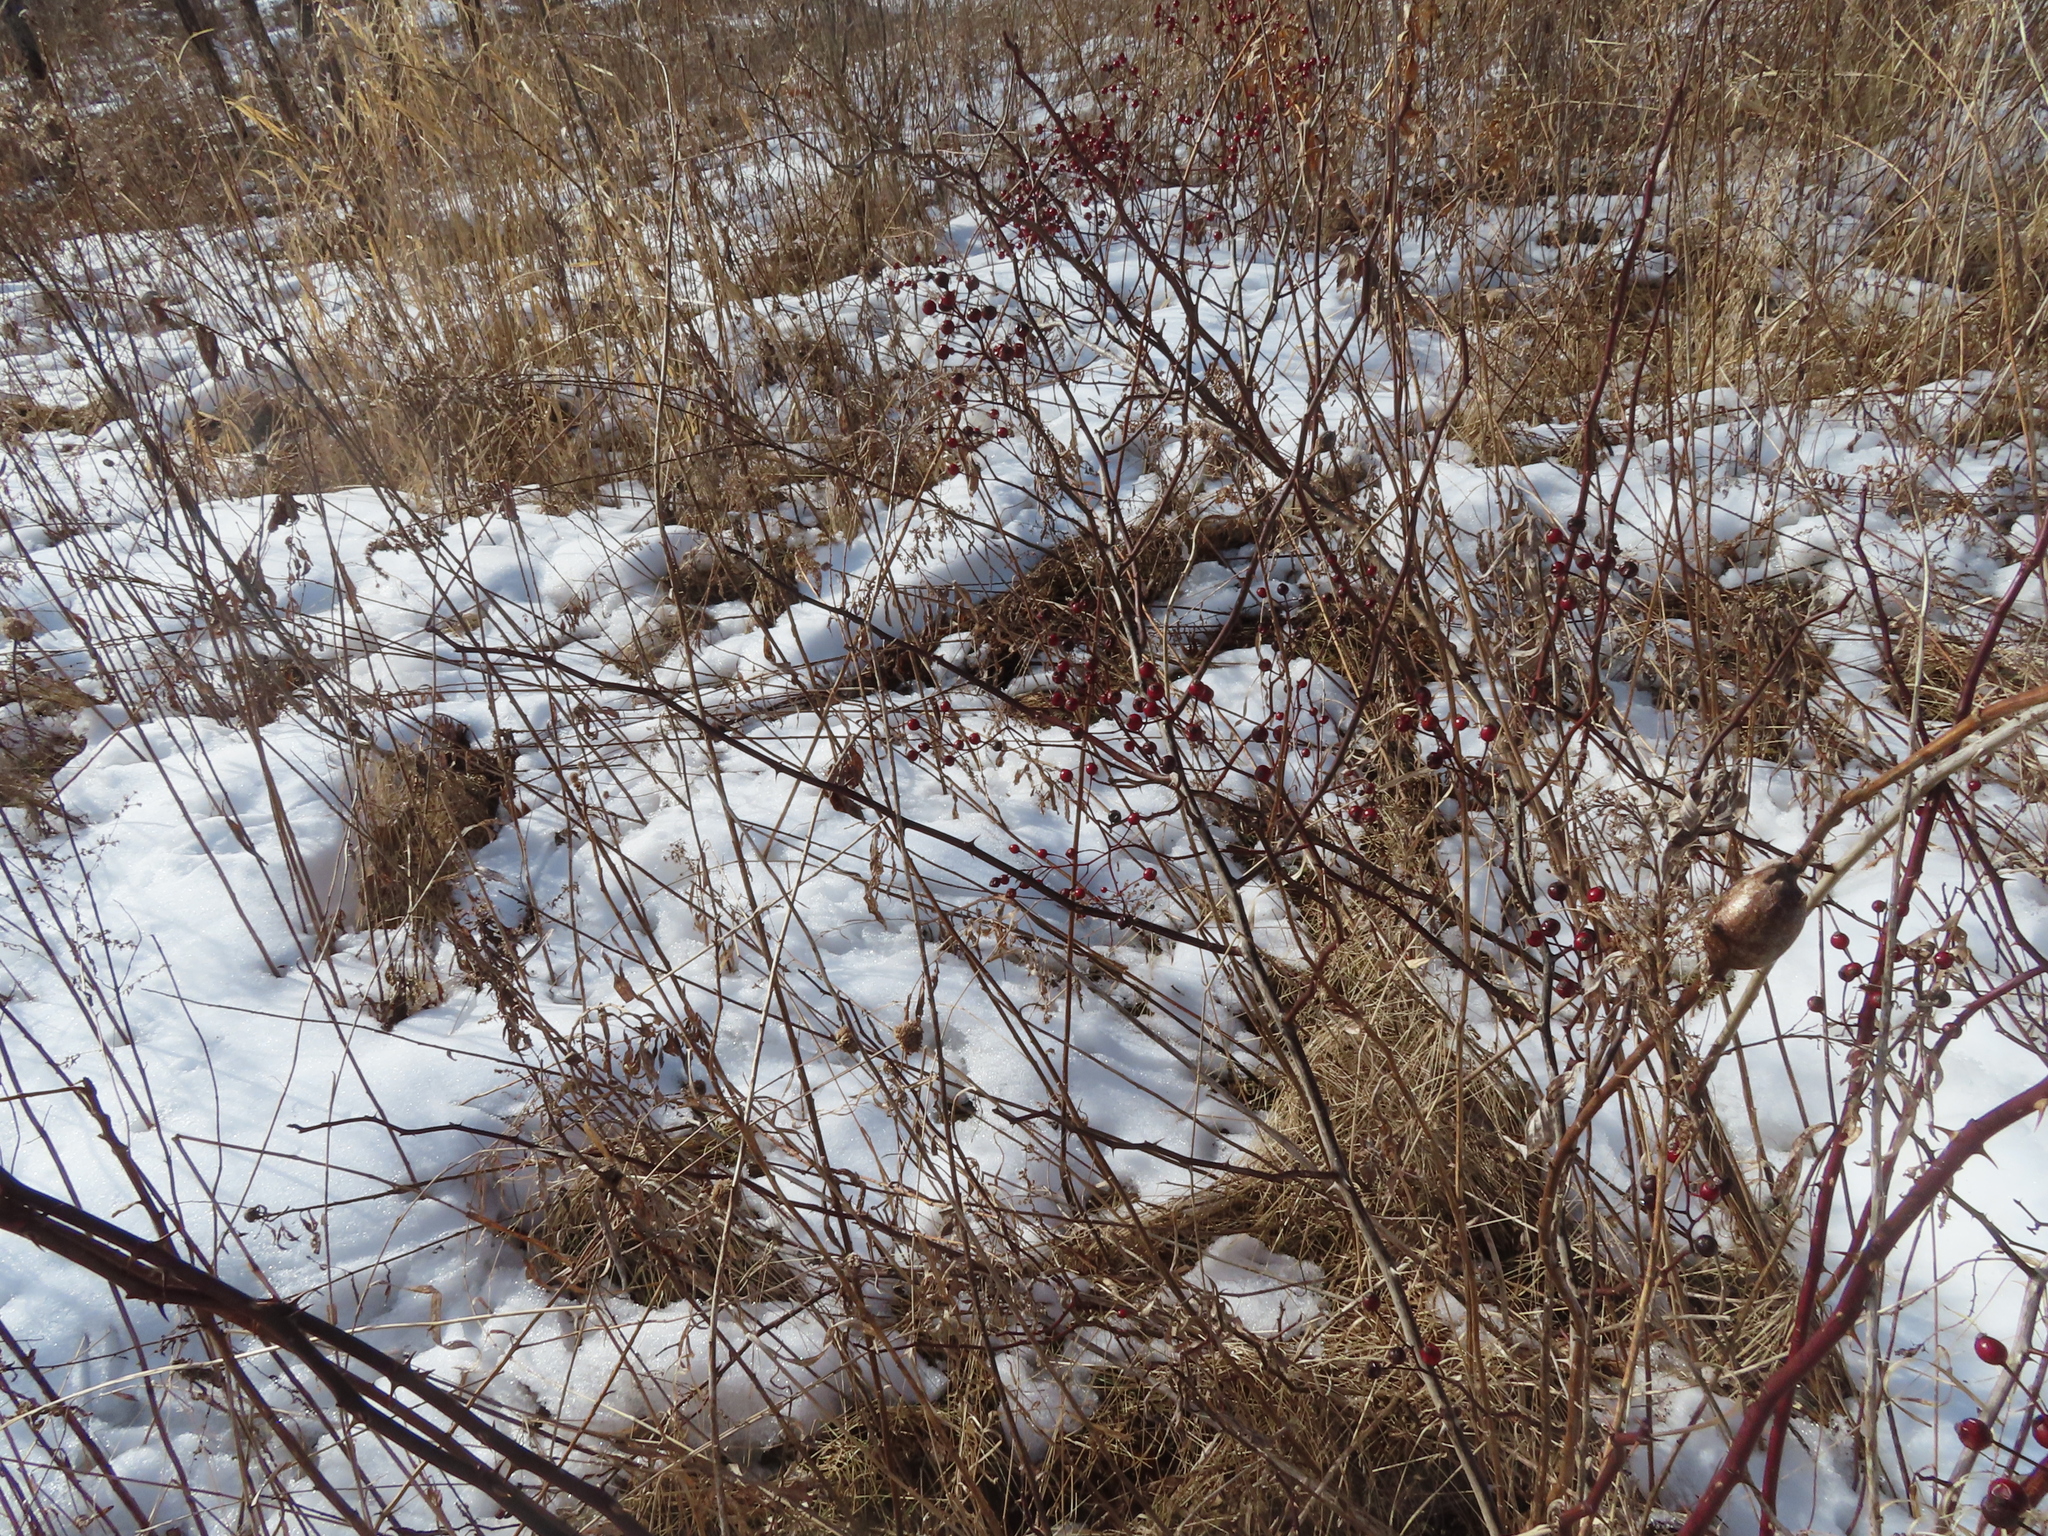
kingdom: Plantae
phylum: Tracheophyta
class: Magnoliopsida
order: Rosales
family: Rosaceae
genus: Rosa
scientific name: Rosa multiflora
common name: Multiflora rose
